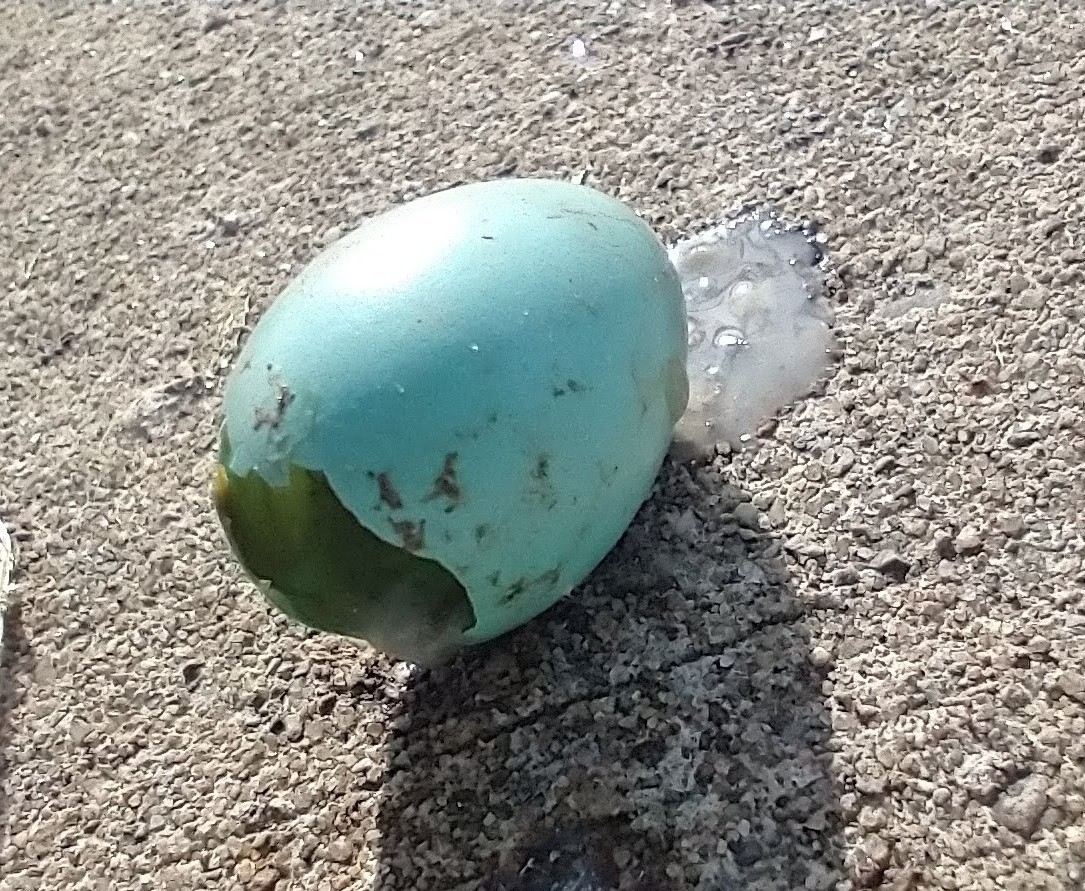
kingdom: Animalia
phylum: Chordata
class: Aves
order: Passeriformes
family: Turdidae
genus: Turdus
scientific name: Turdus migratorius
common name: American robin
